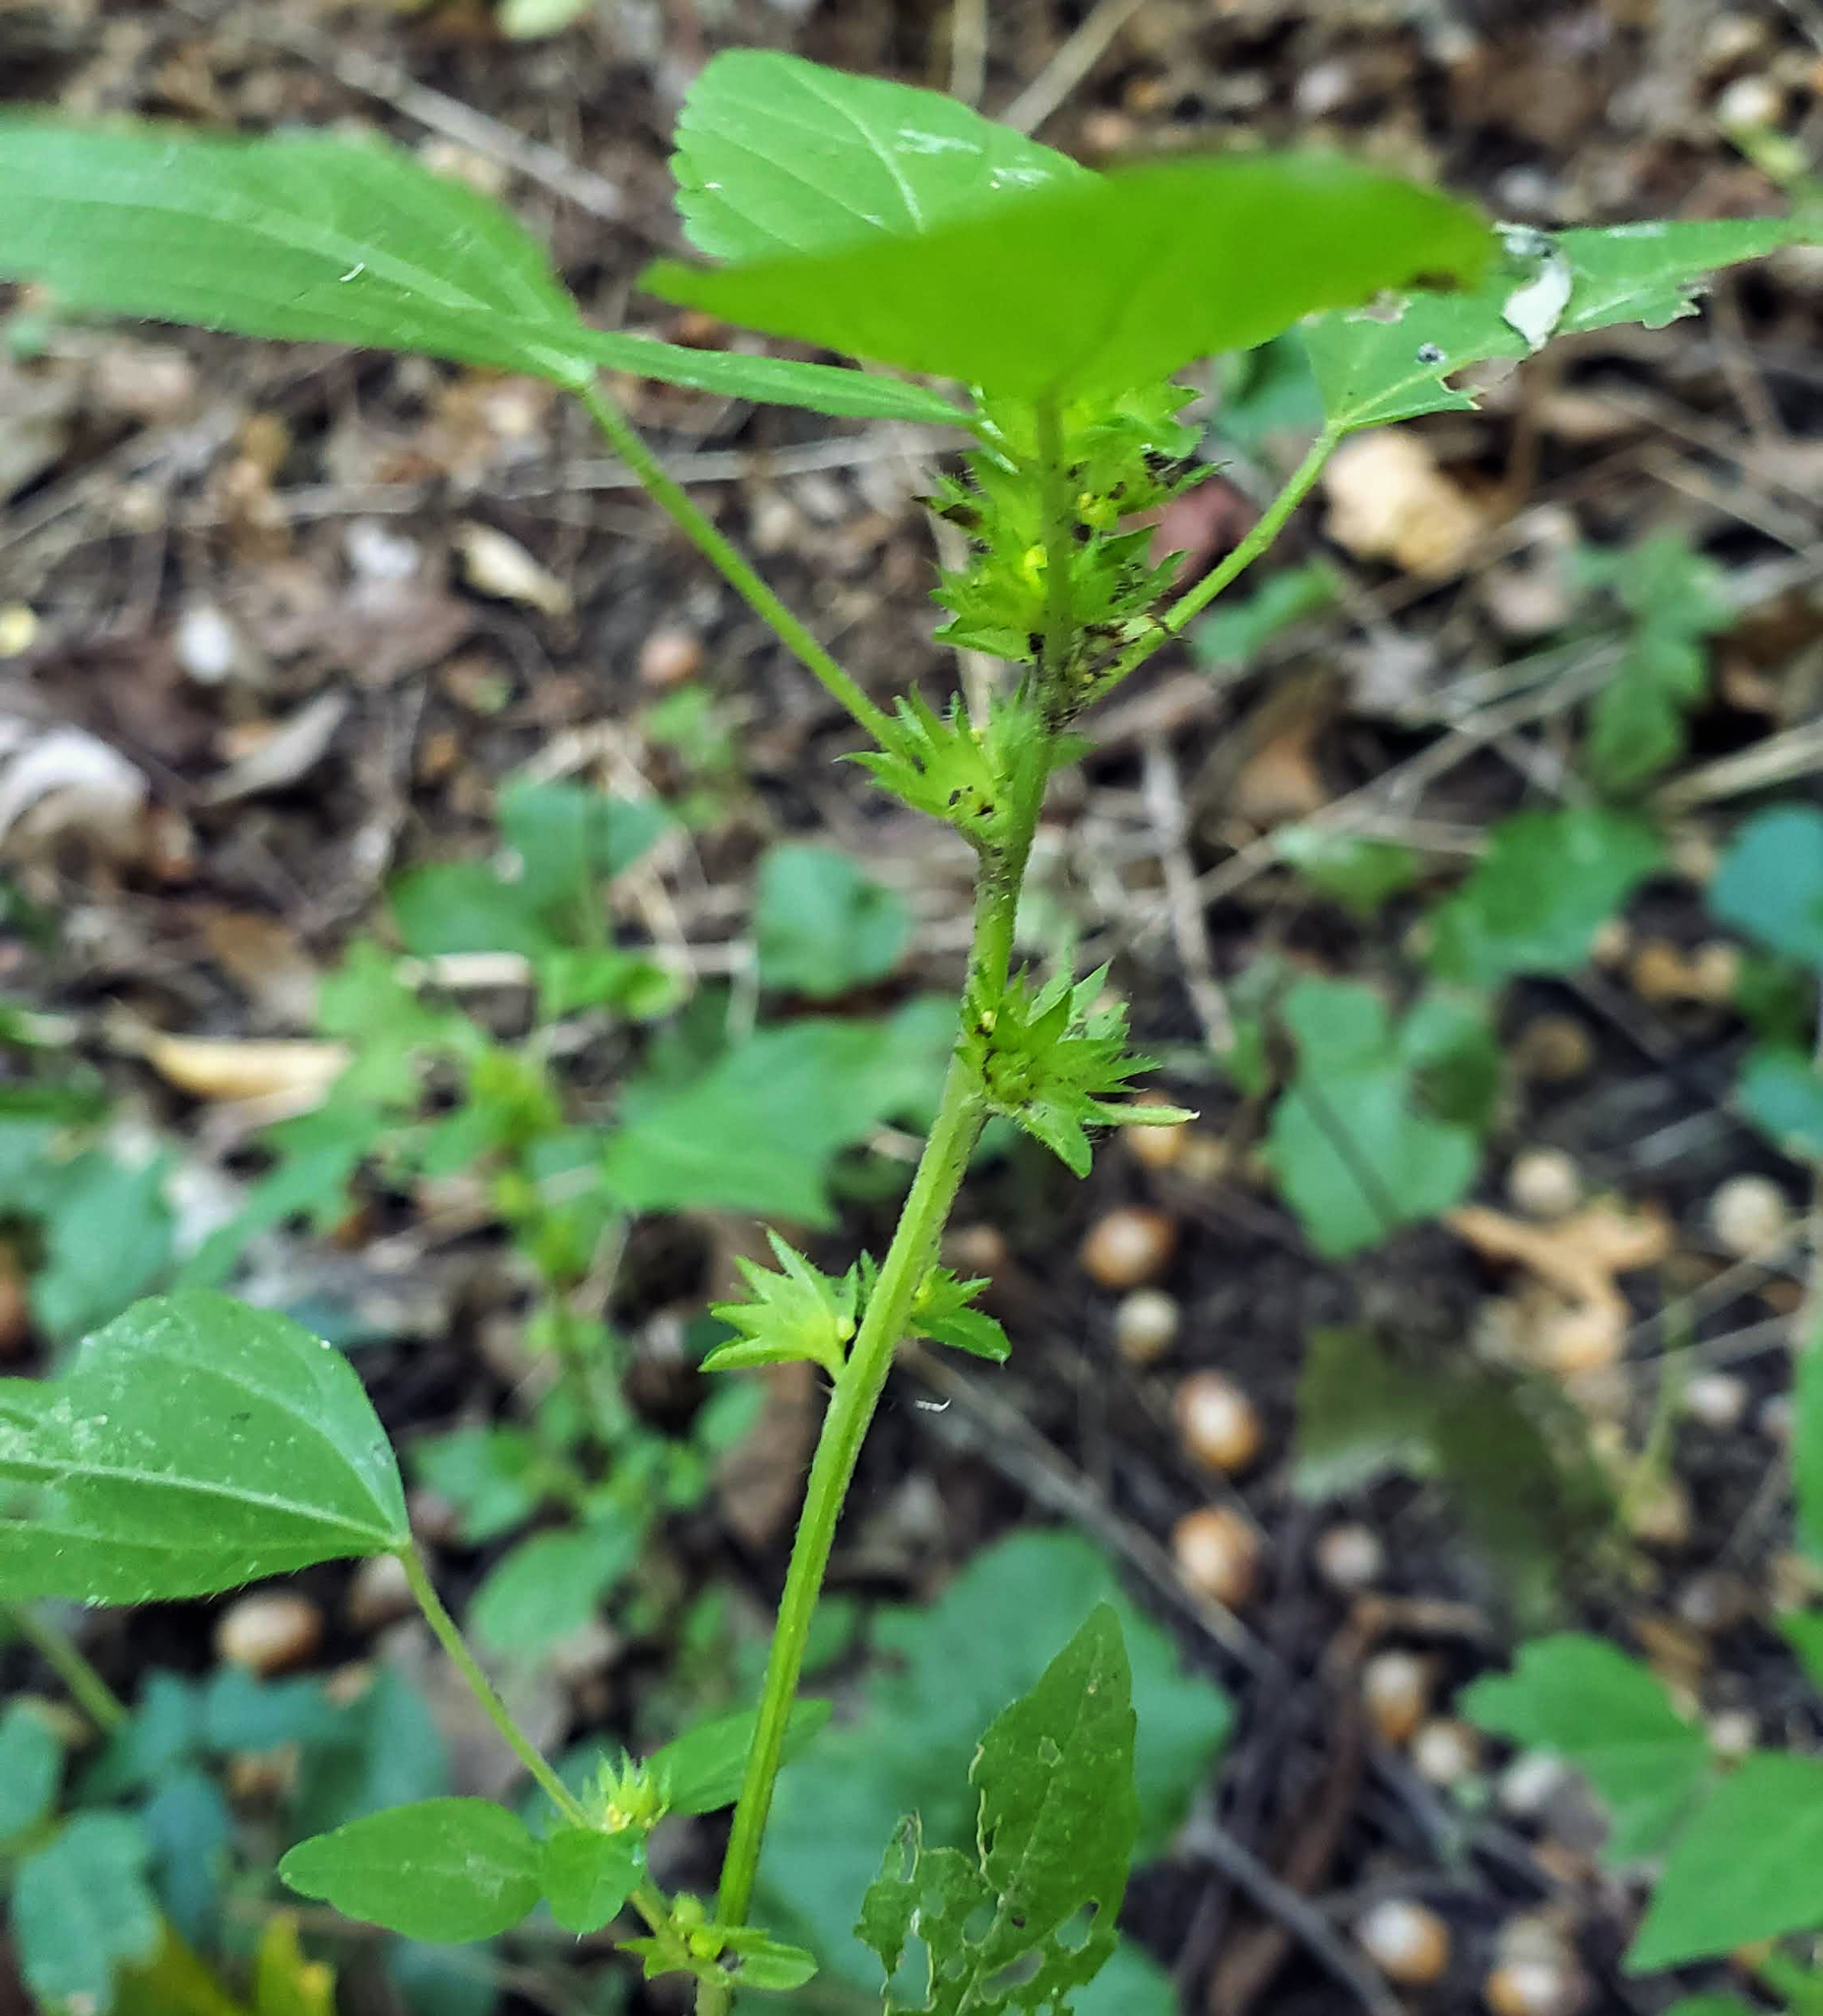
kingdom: Plantae
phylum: Tracheophyta
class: Magnoliopsida
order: Malpighiales
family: Euphorbiaceae
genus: Acalypha
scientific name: Acalypha rhomboidea
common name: Rhombic copperleaf
